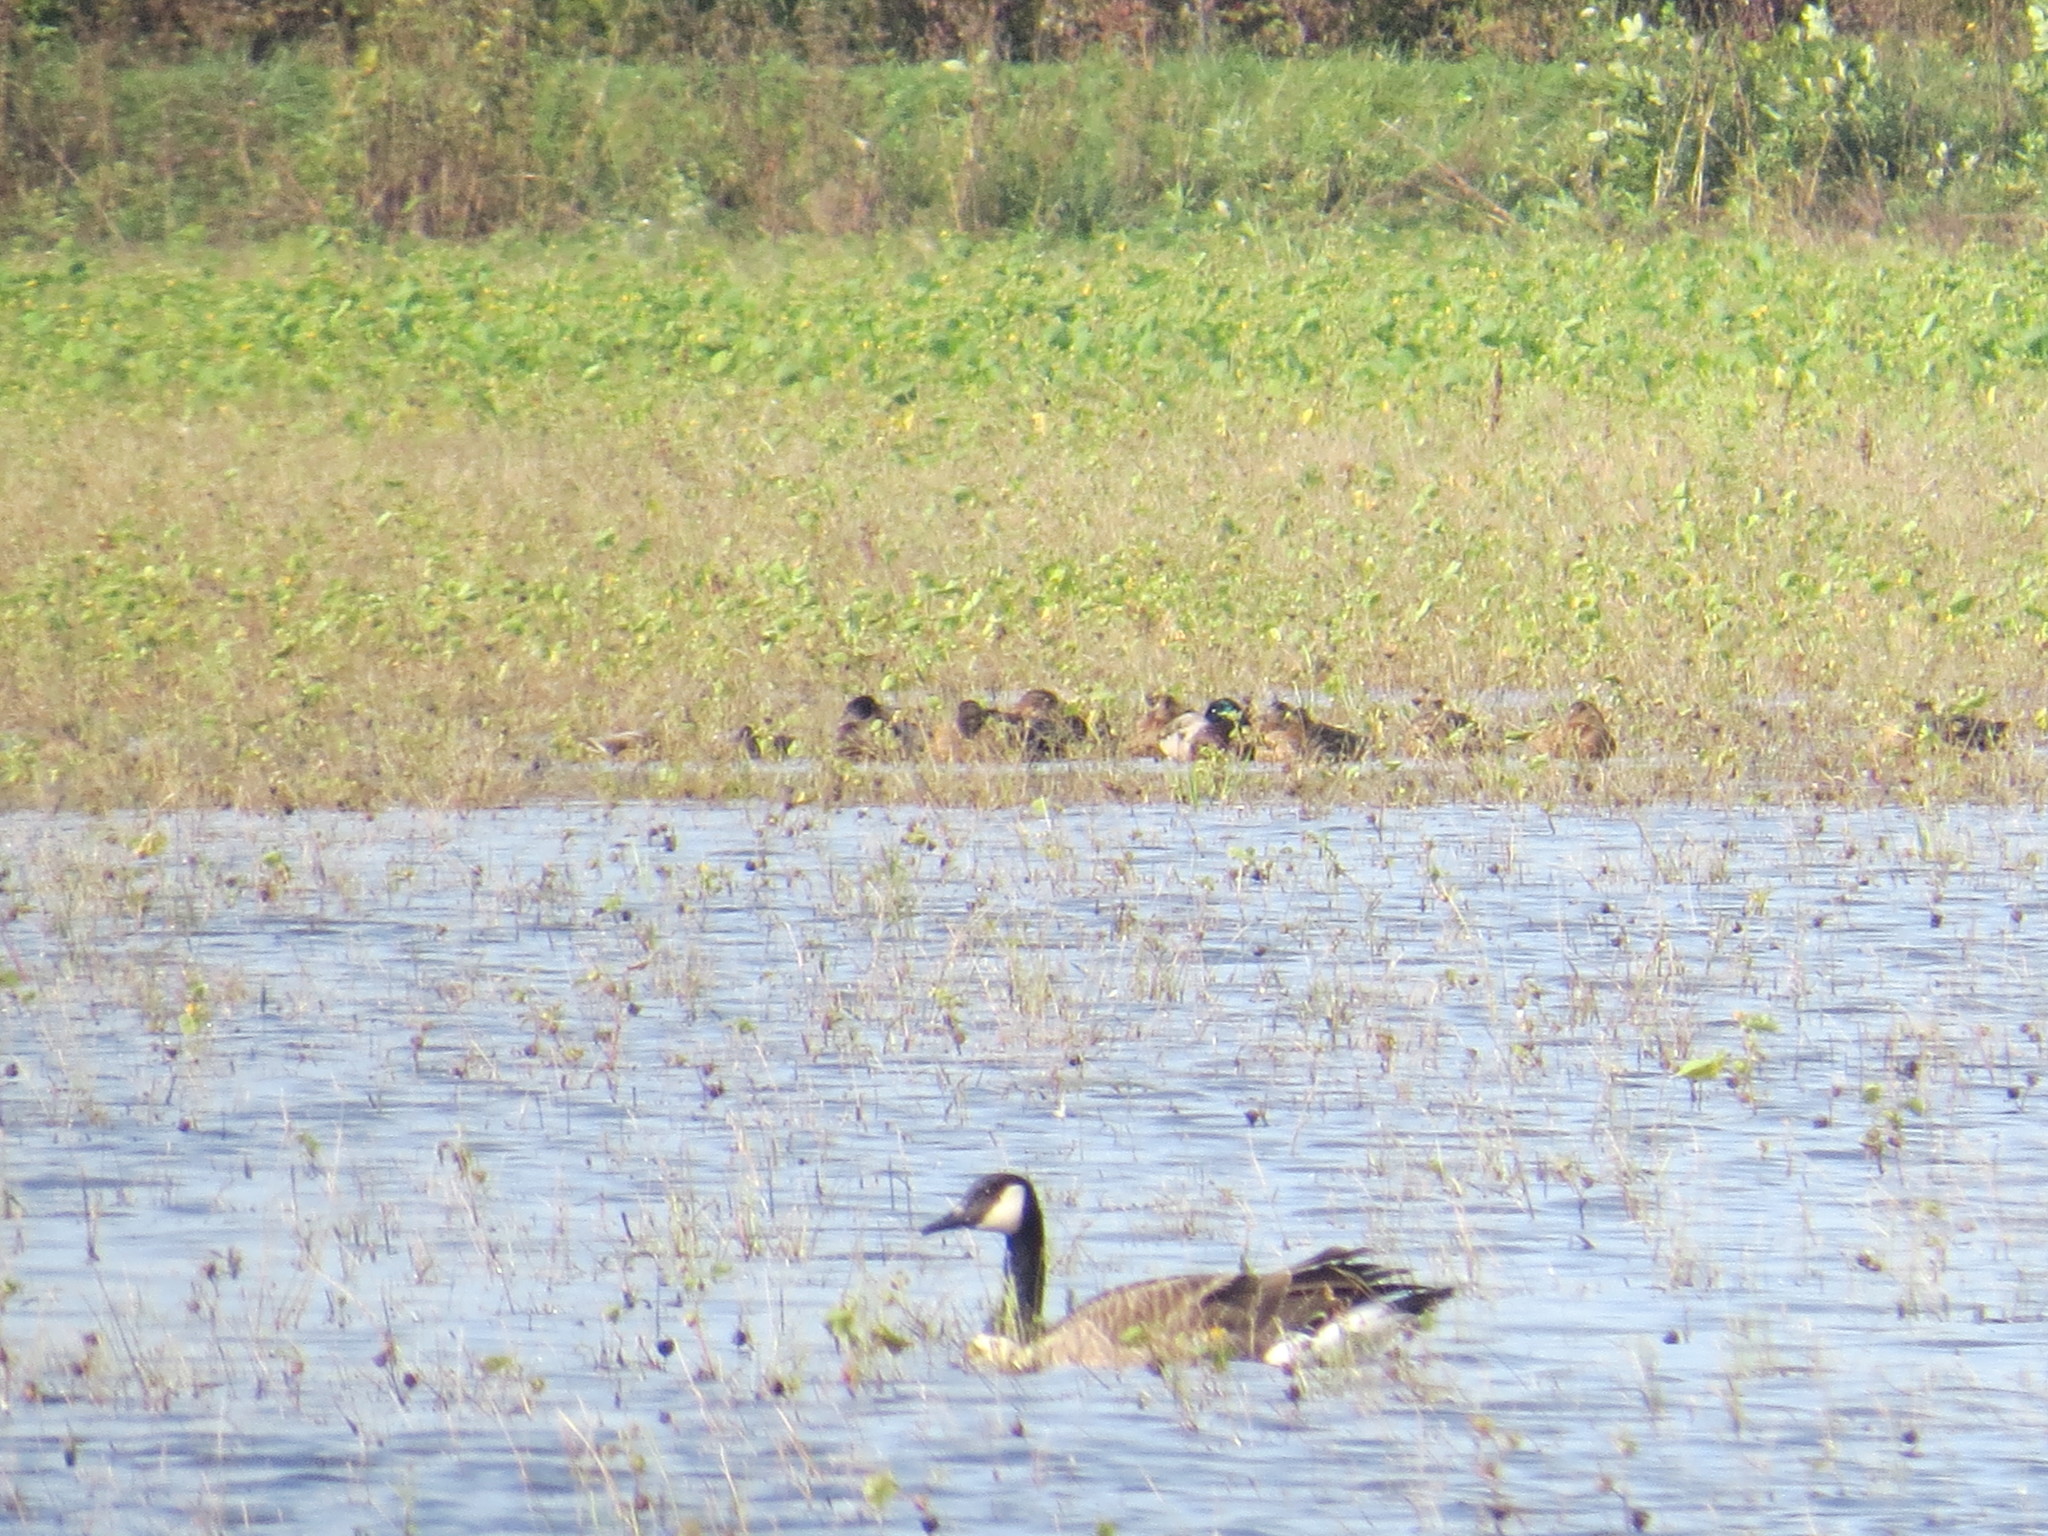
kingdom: Animalia
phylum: Chordata
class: Aves
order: Anseriformes
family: Anatidae
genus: Branta
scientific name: Branta canadensis
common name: Canada goose
